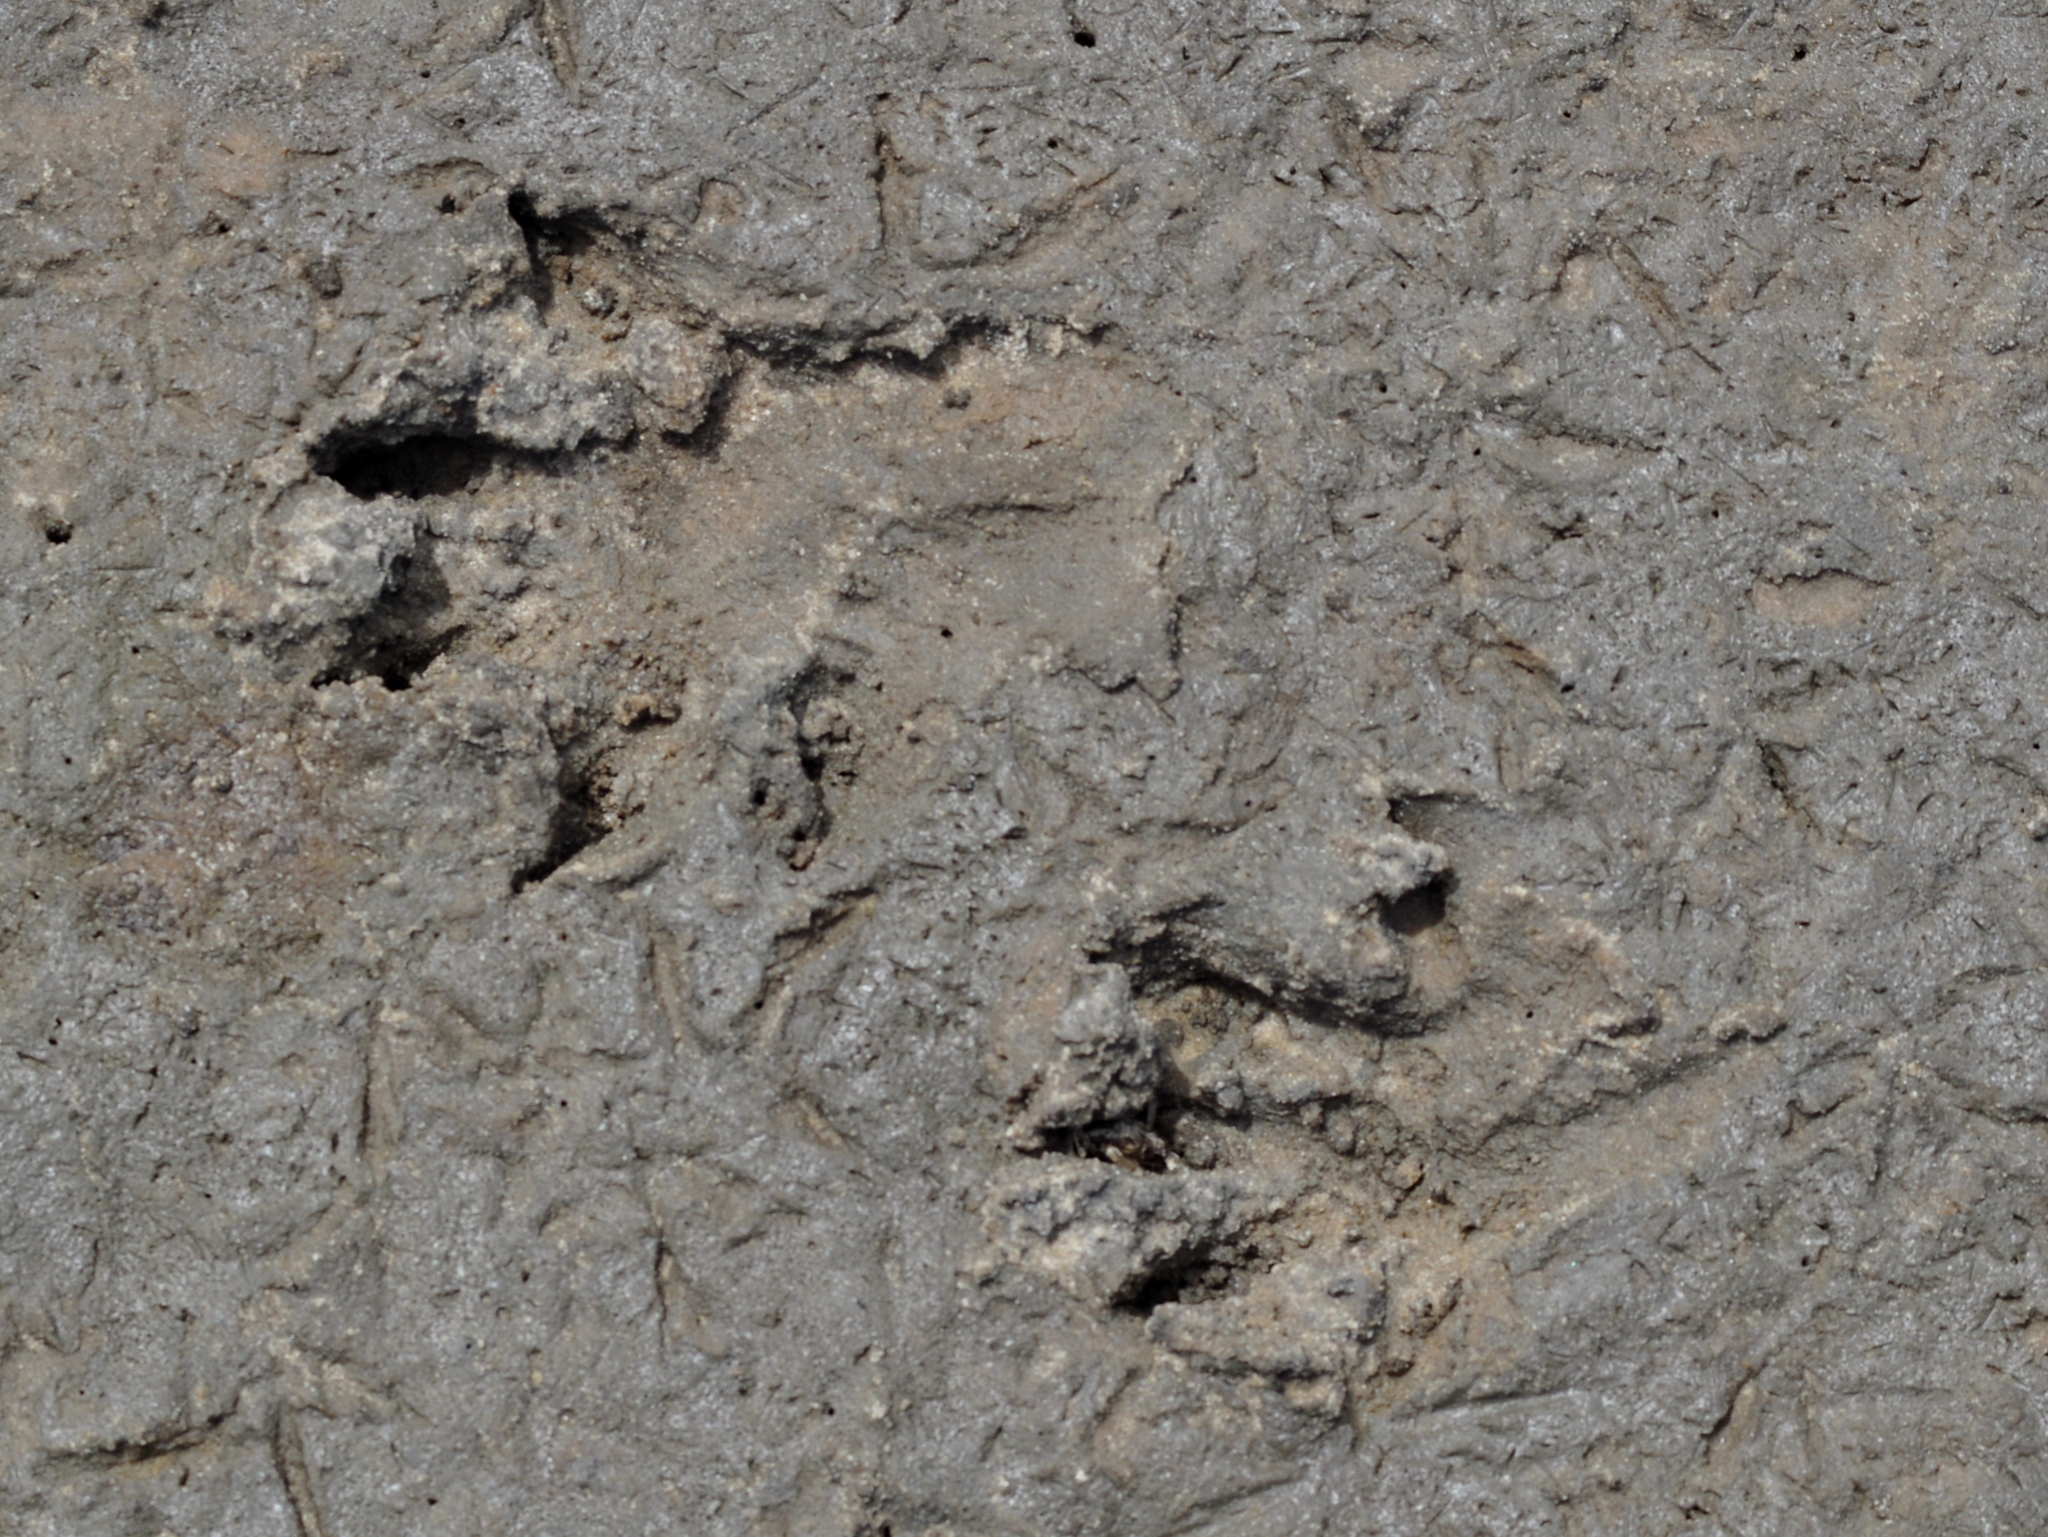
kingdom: Animalia
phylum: Chordata
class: Crocodylia
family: Alligatoridae
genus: Caiman
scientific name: Caiman latirostris
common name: Broad-snouted caiman
